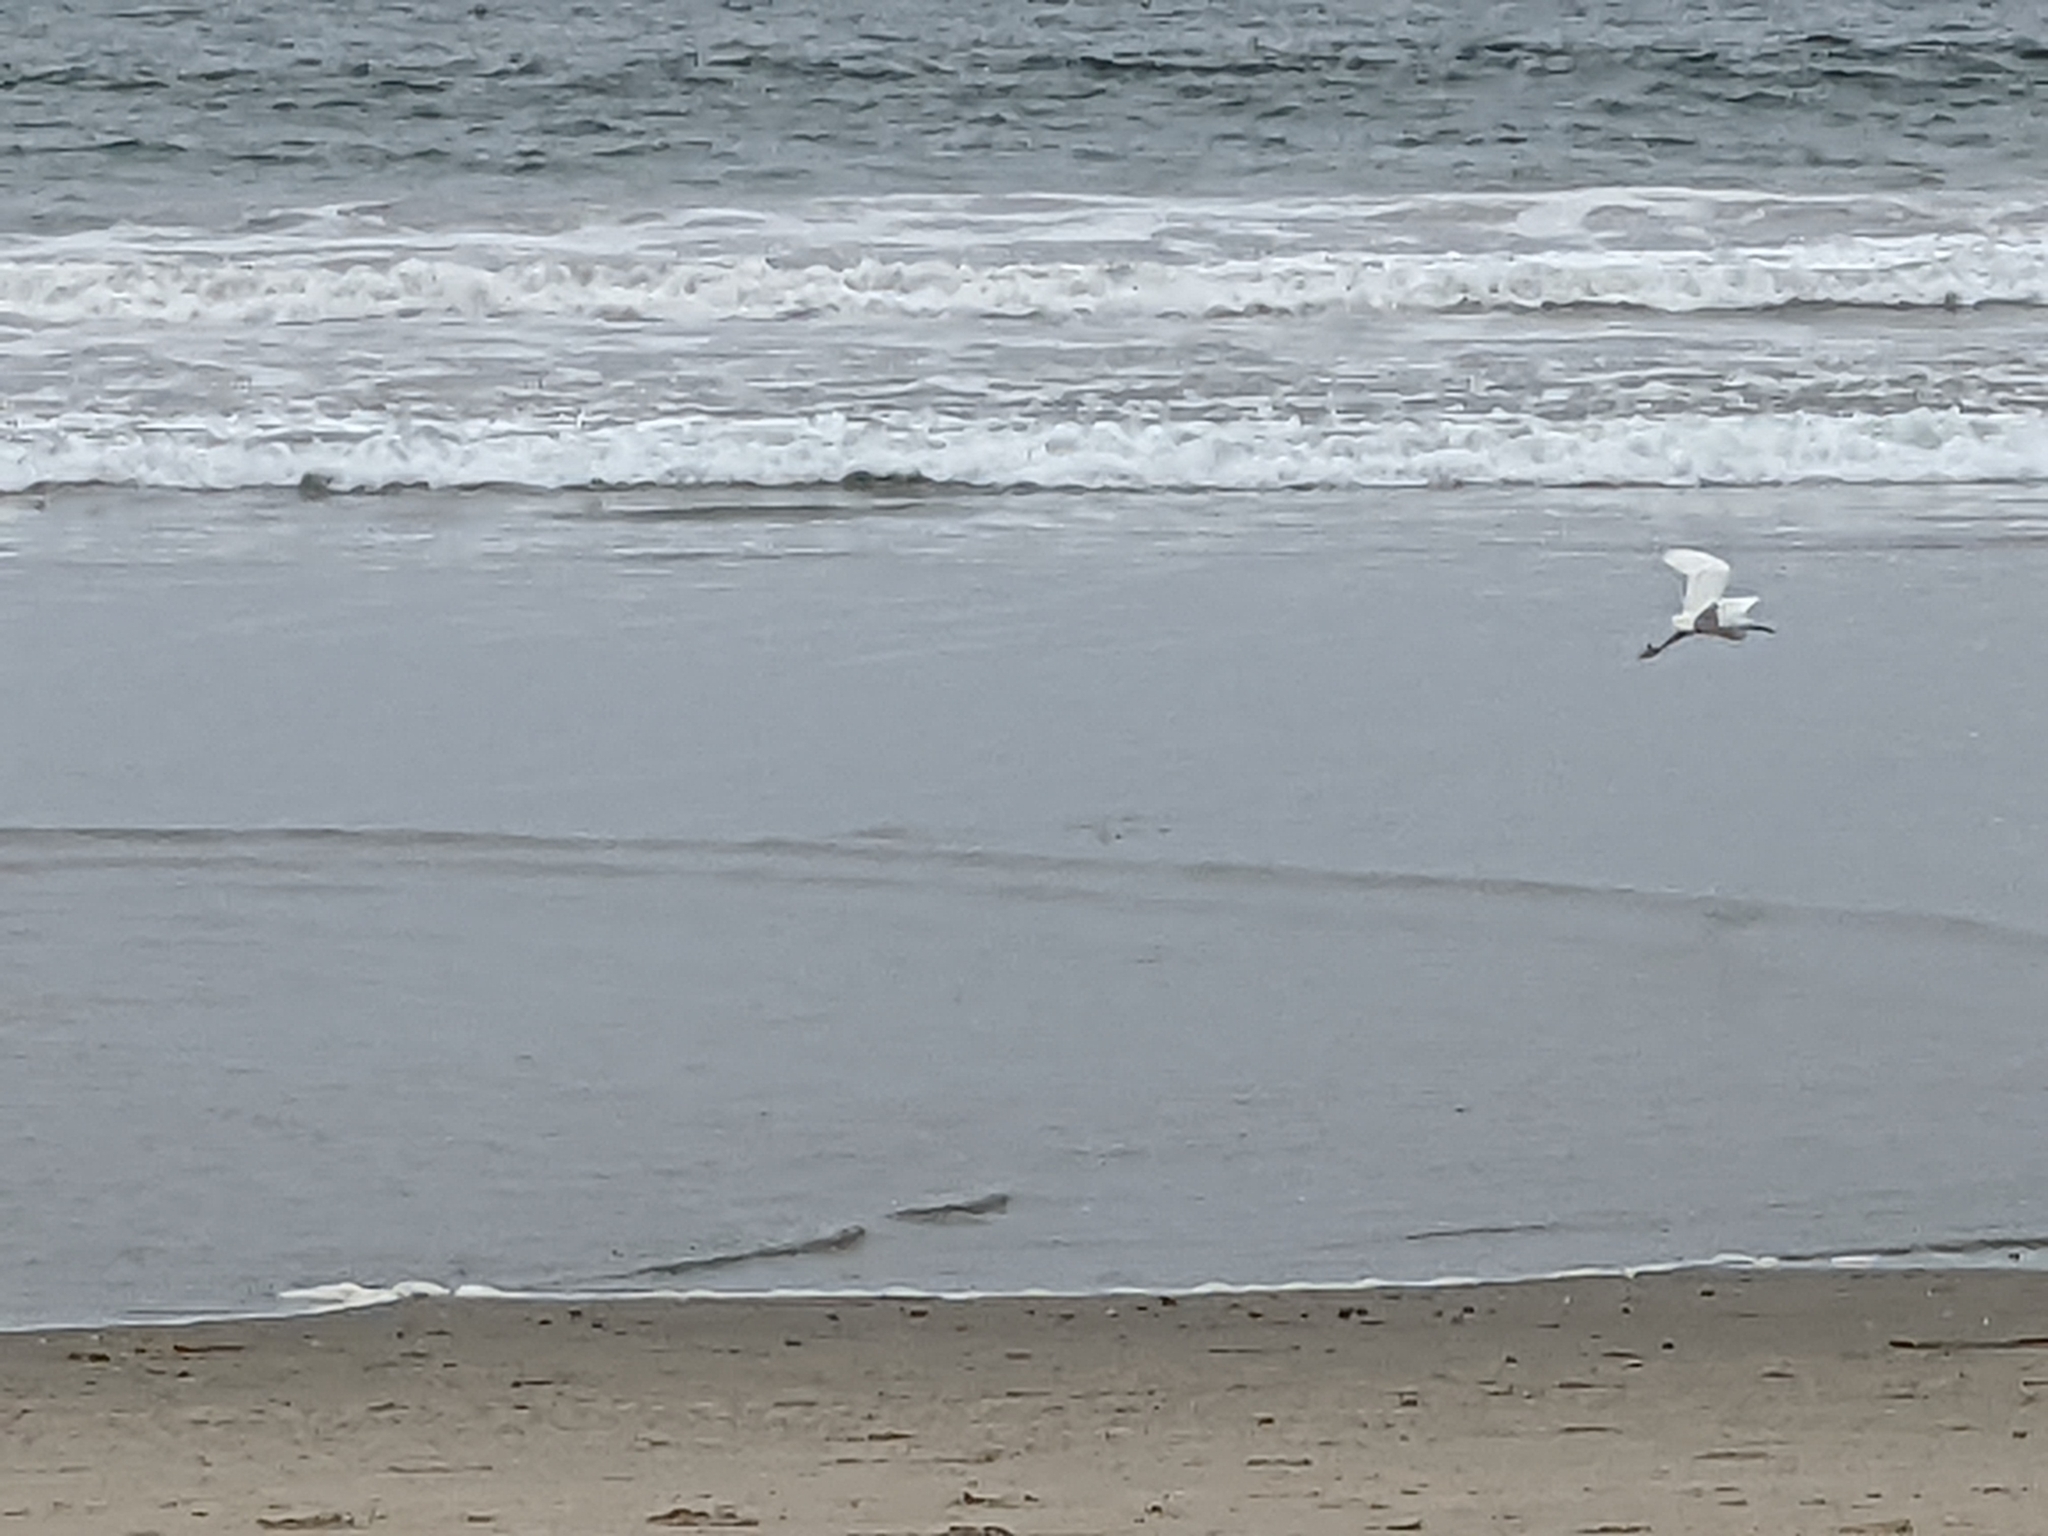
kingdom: Animalia
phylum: Chordata
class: Aves
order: Pelecaniformes
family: Ardeidae
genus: Egretta
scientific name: Egretta thula
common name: Snowy egret
